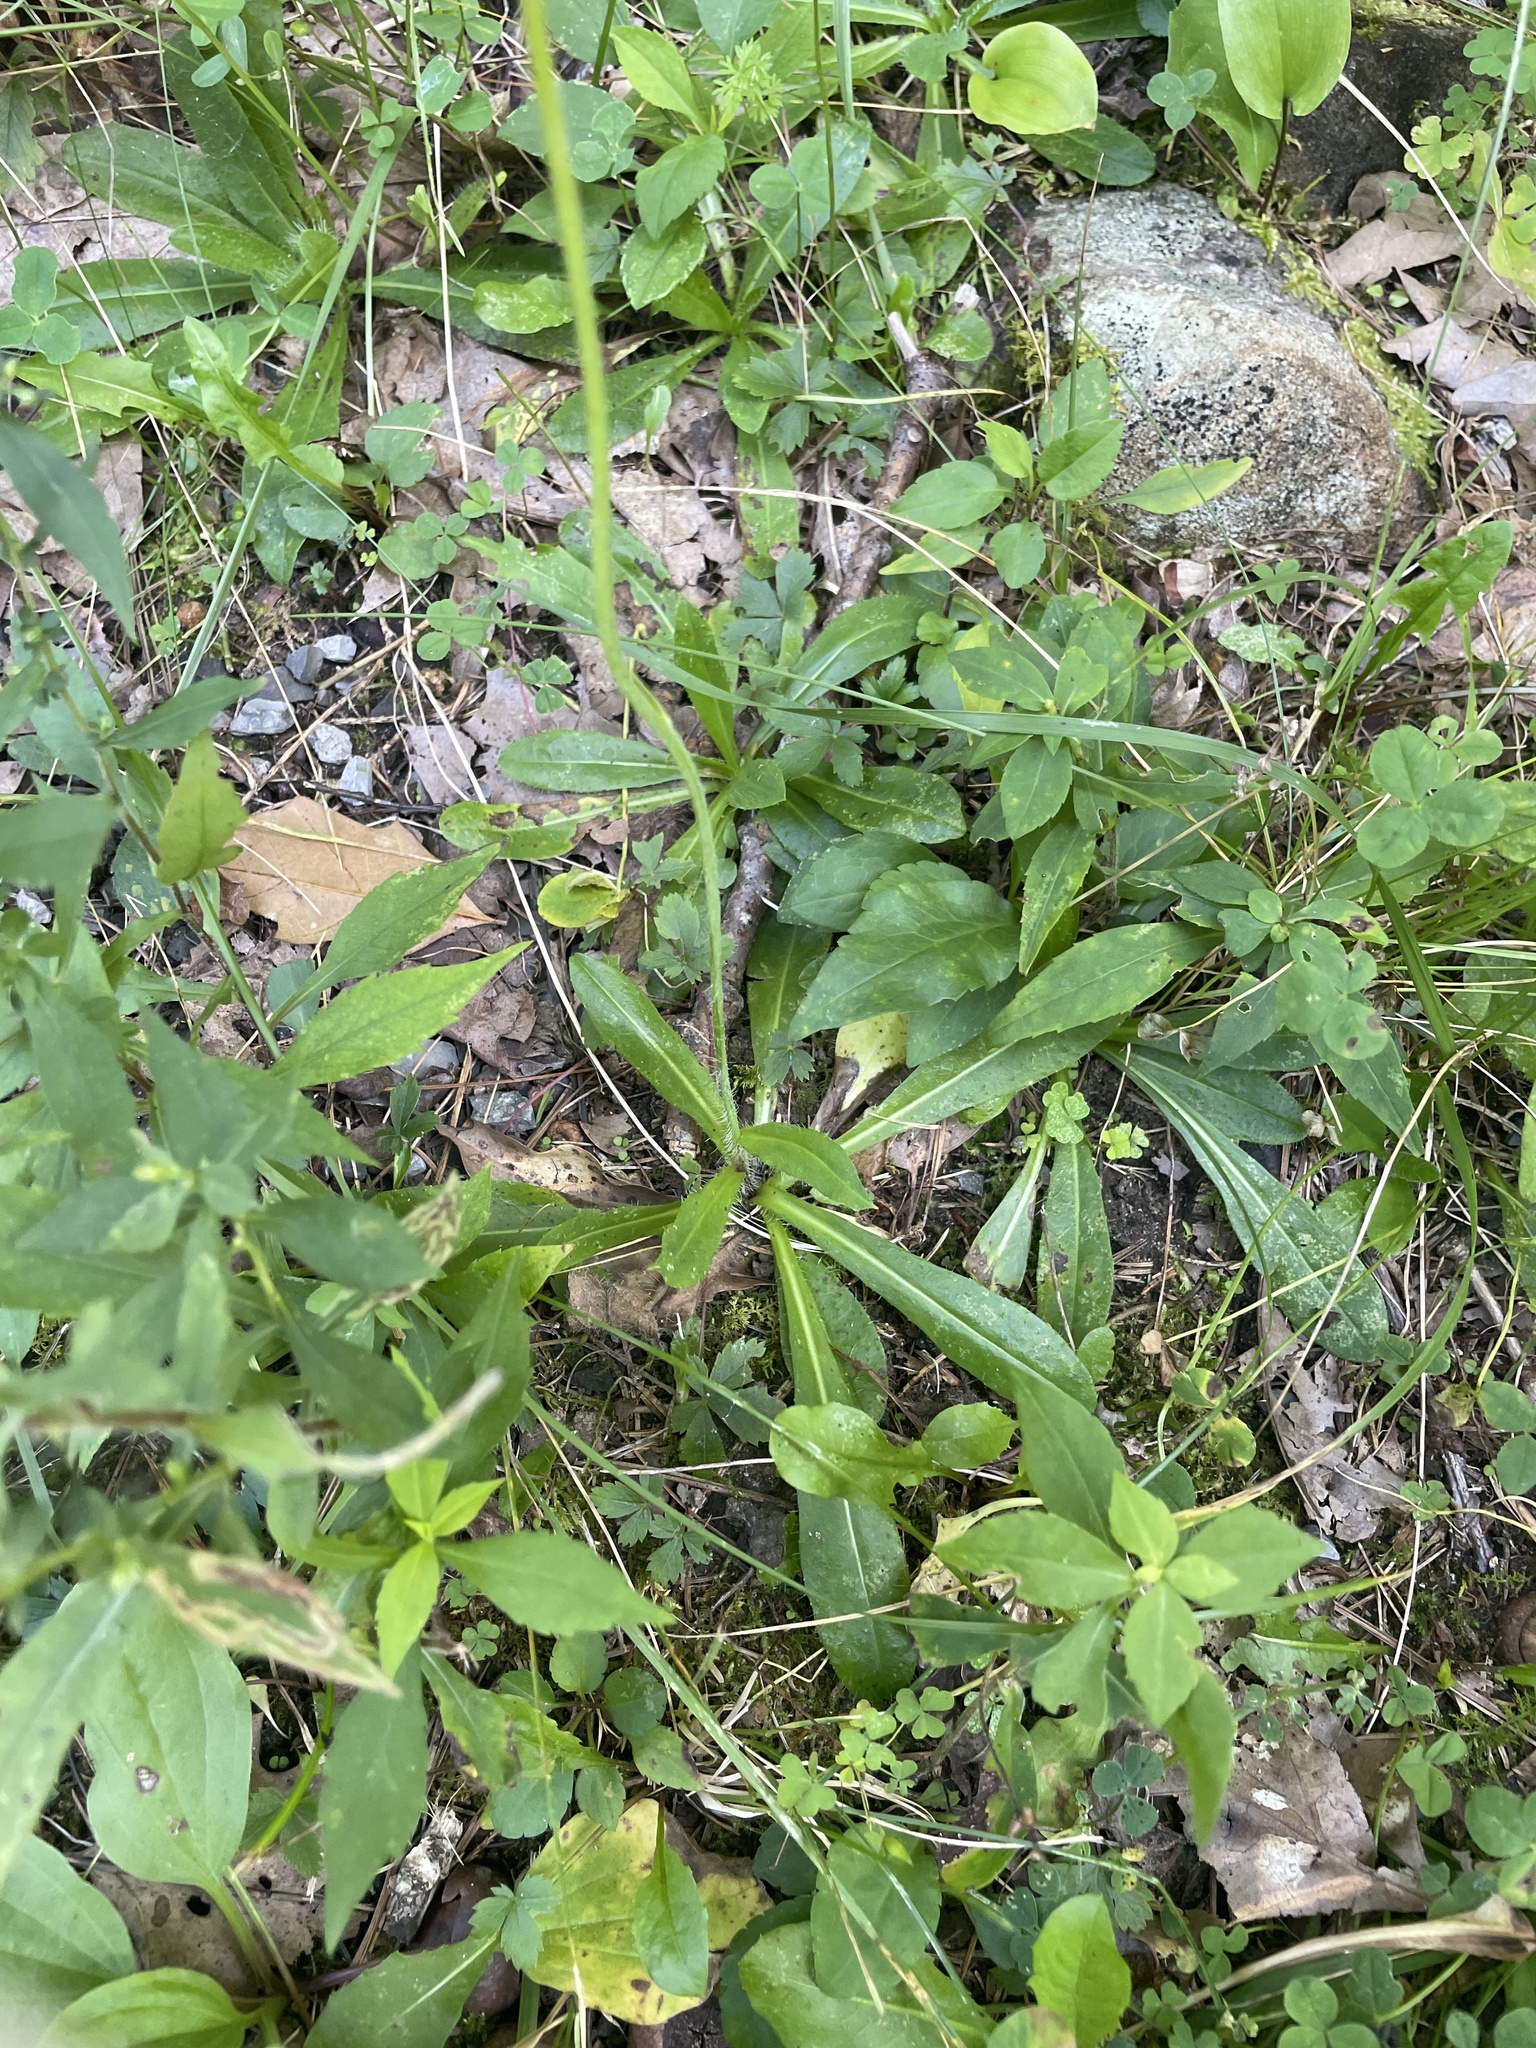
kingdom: Plantae
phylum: Tracheophyta
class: Magnoliopsida
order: Asterales
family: Asteraceae
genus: Pilosella
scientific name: Pilosella aurantiaca
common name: Fox-and-cubs
